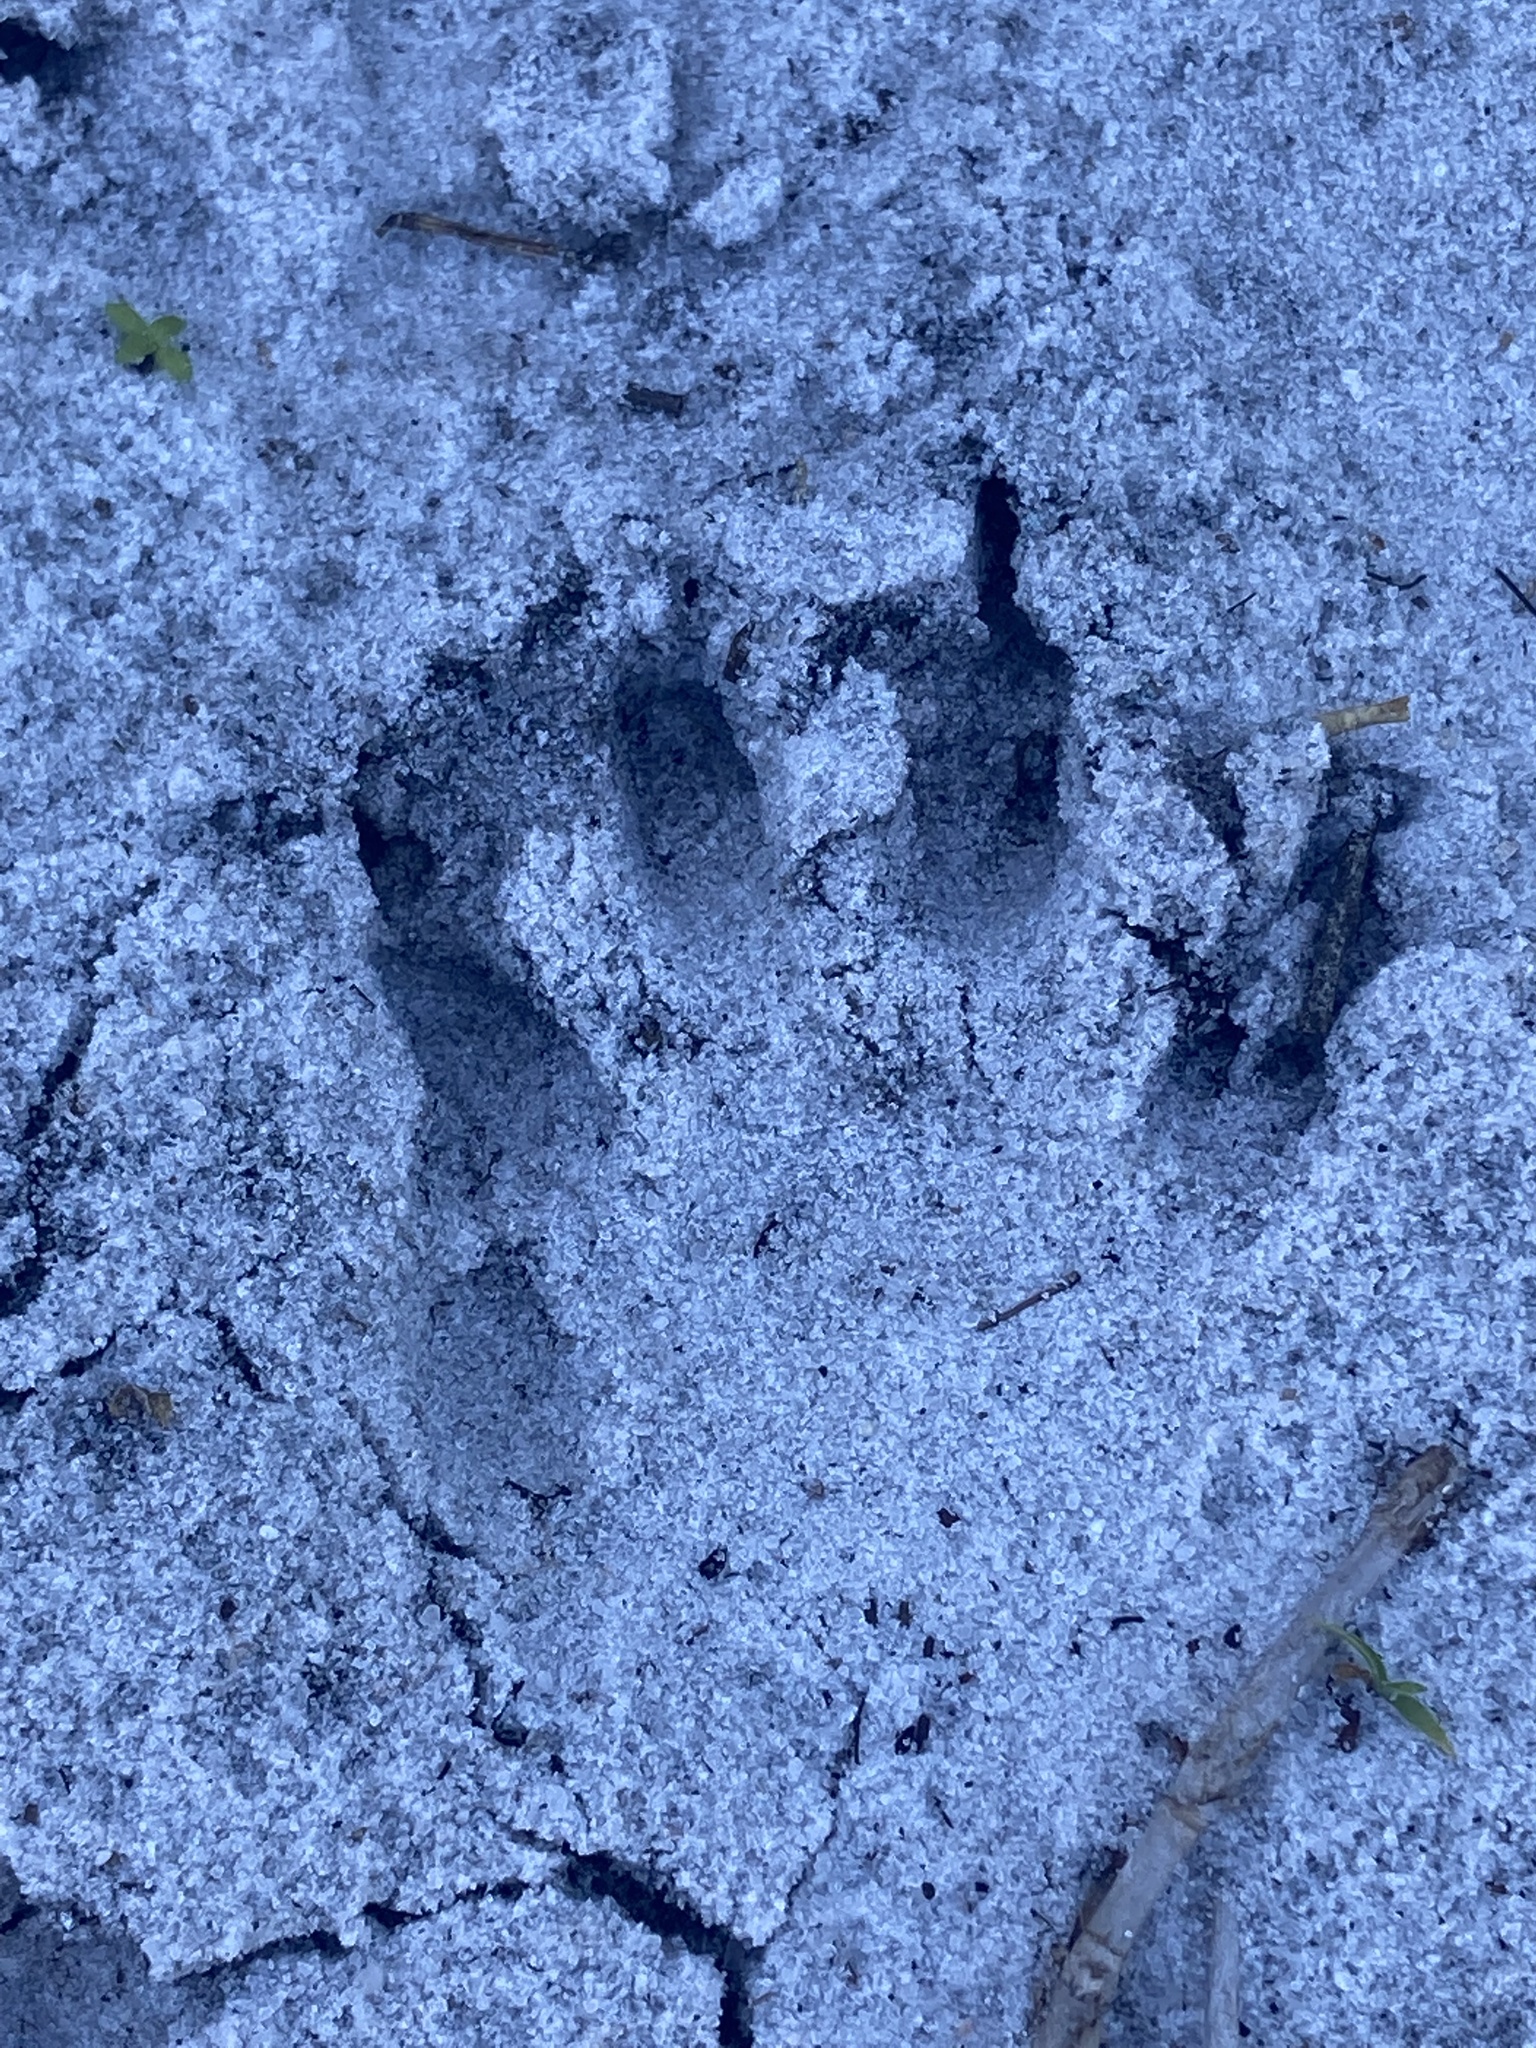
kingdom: Animalia
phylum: Chordata
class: Mammalia
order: Carnivora
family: Procyonidae
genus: Procyon
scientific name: Procyon lotor
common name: Raccoon
